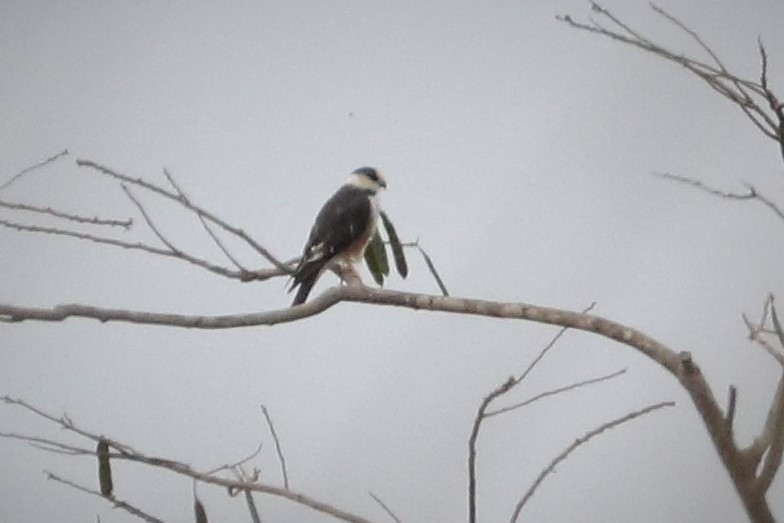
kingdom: Animalia
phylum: Chordata
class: Aves
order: Accipitriformes
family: Accipitridae
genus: Gampsonyx
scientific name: Gampsonyx swainsonii
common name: Pearl kite
